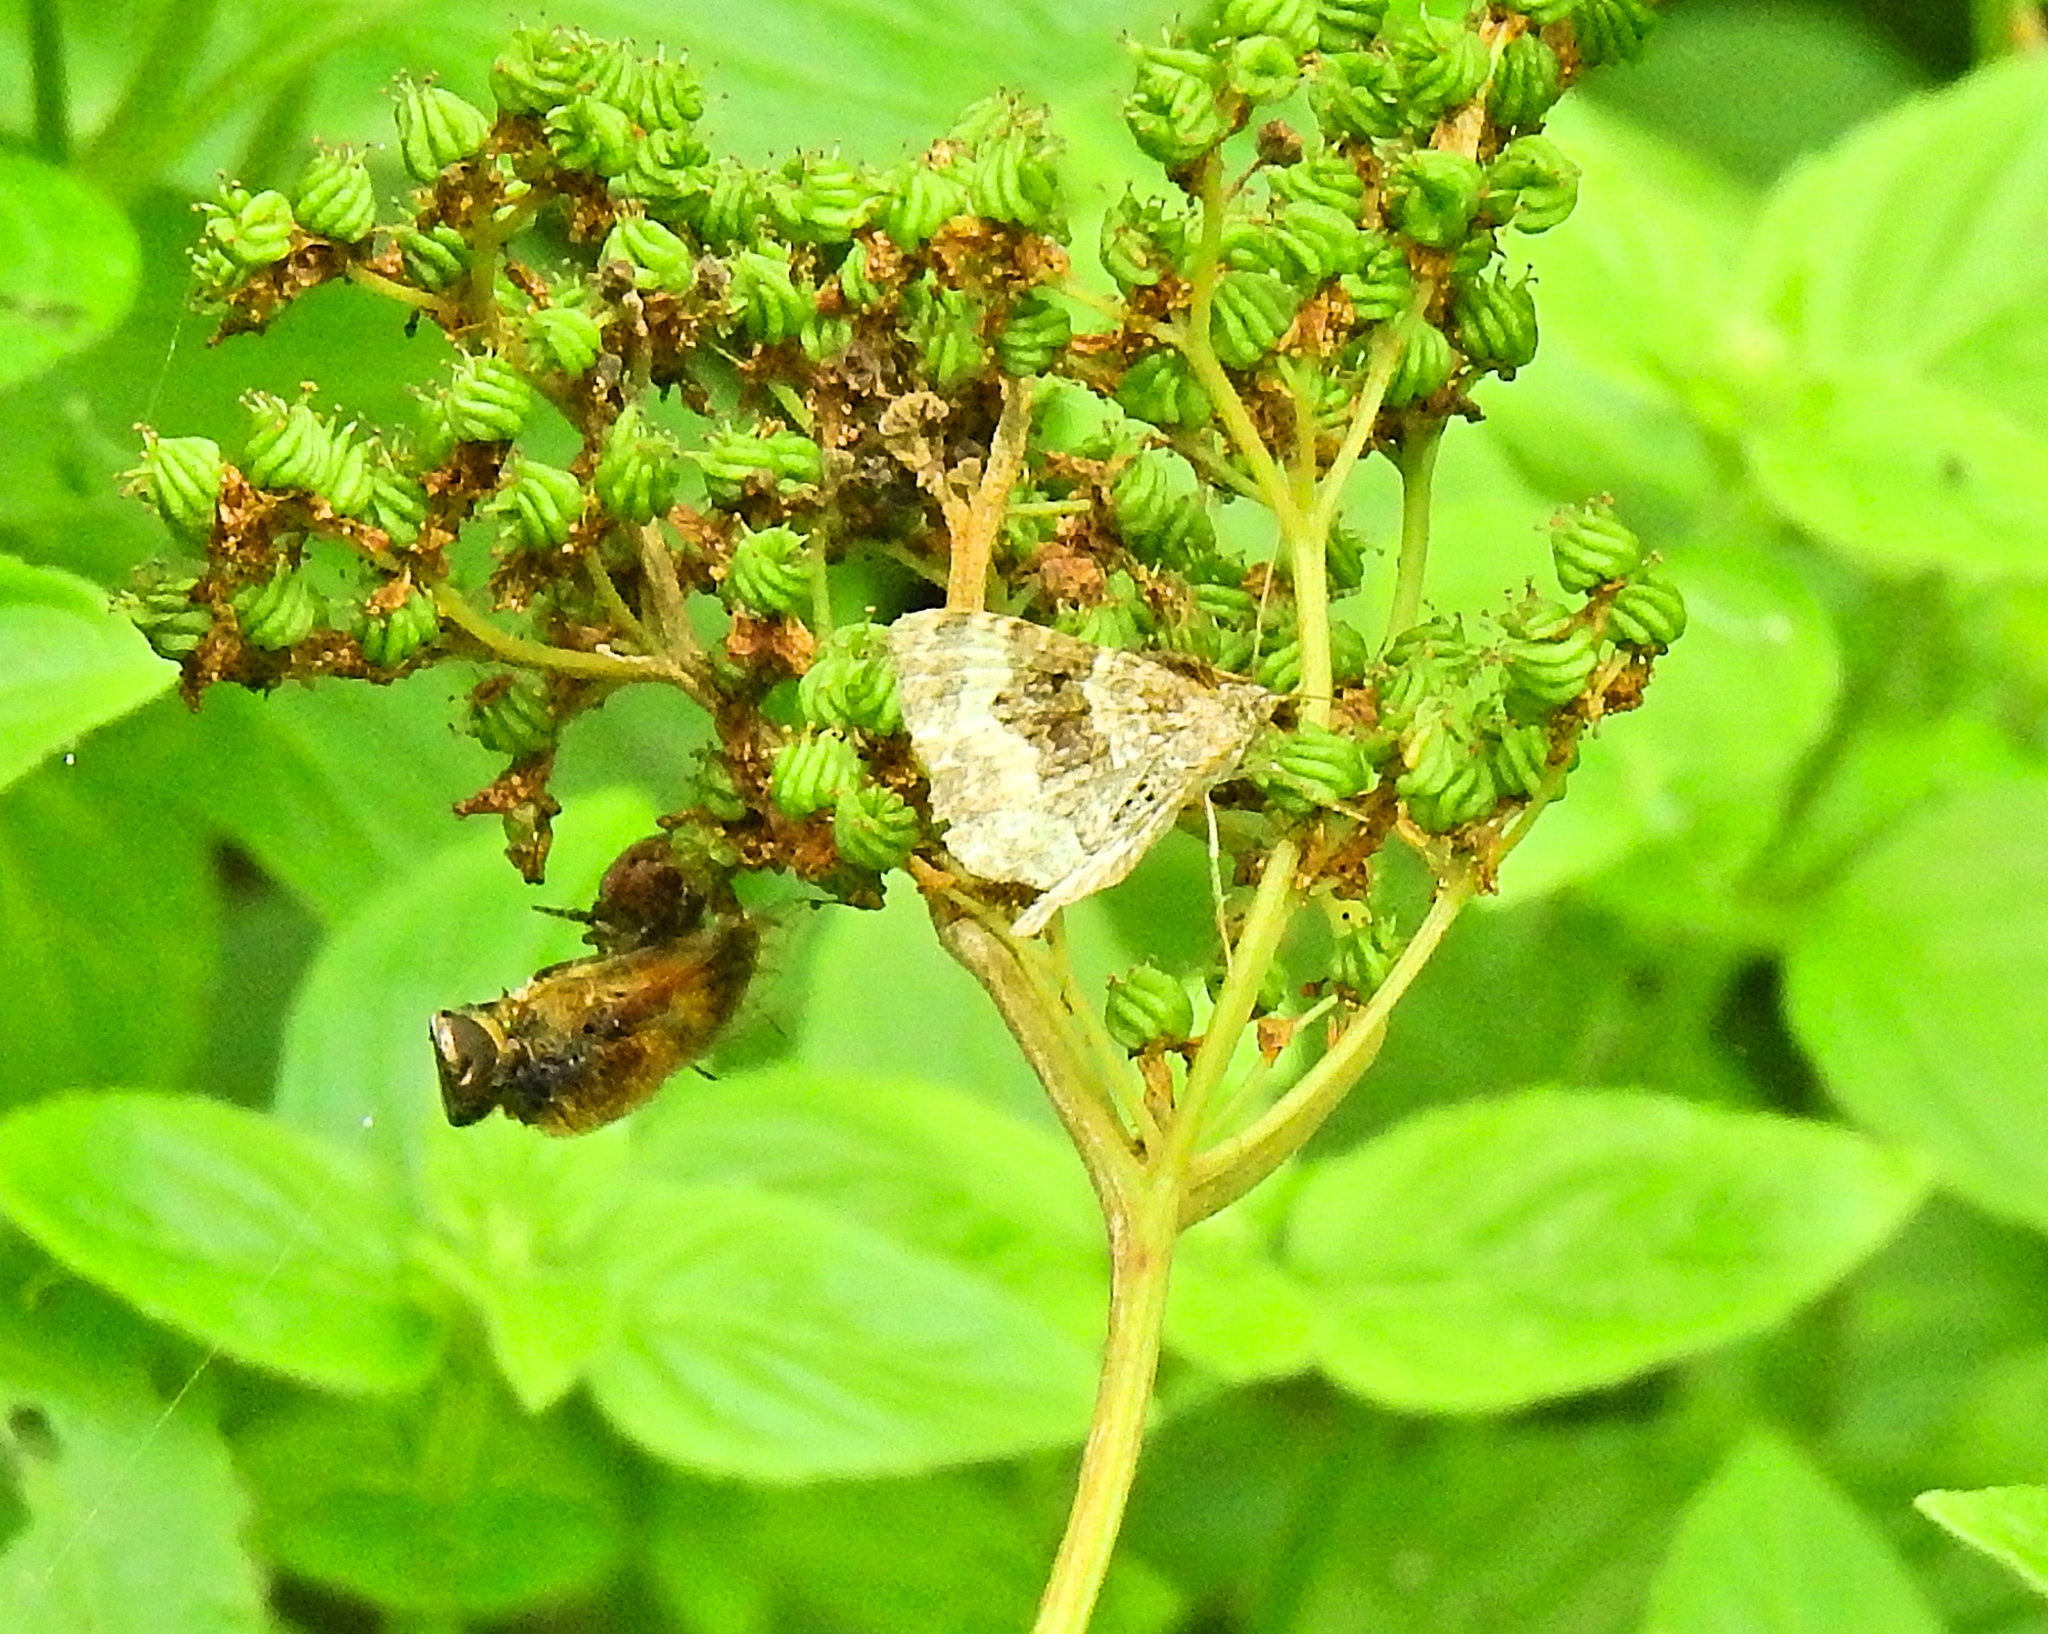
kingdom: Animalia
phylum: Arthropoda
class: Insecta
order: Lepidoptera
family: Geometridae
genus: Epirrhoe
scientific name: Epirrhoe alternata
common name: Common carpet
